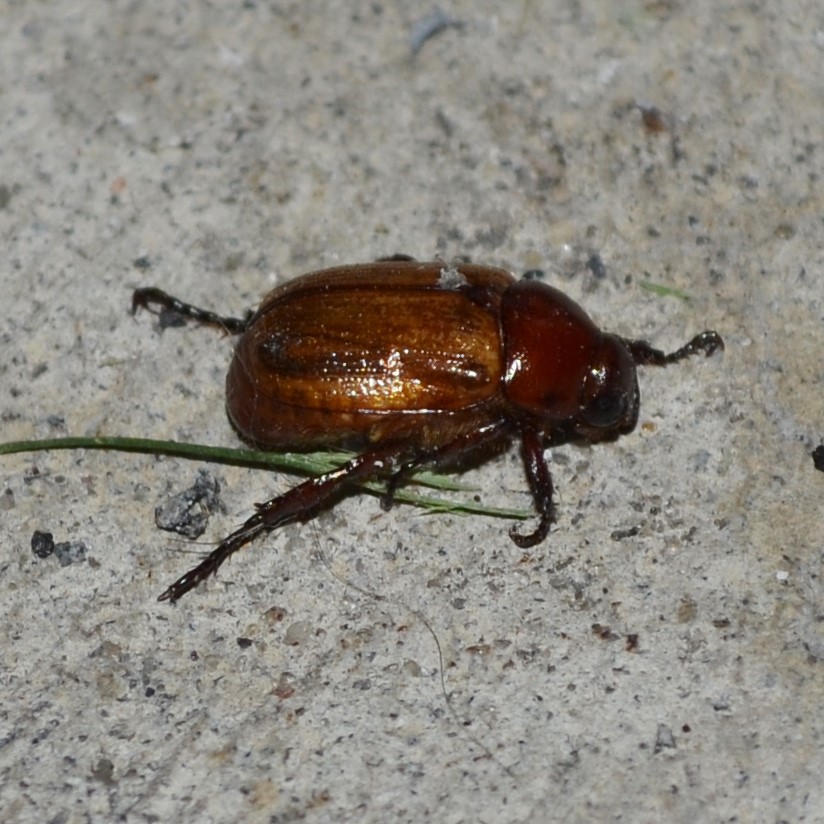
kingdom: Animalia
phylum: Arthropoda
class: Insecta
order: Coleoptera
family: Scarabaeidae
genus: Paranomala
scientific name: Paranomala flavipennis
